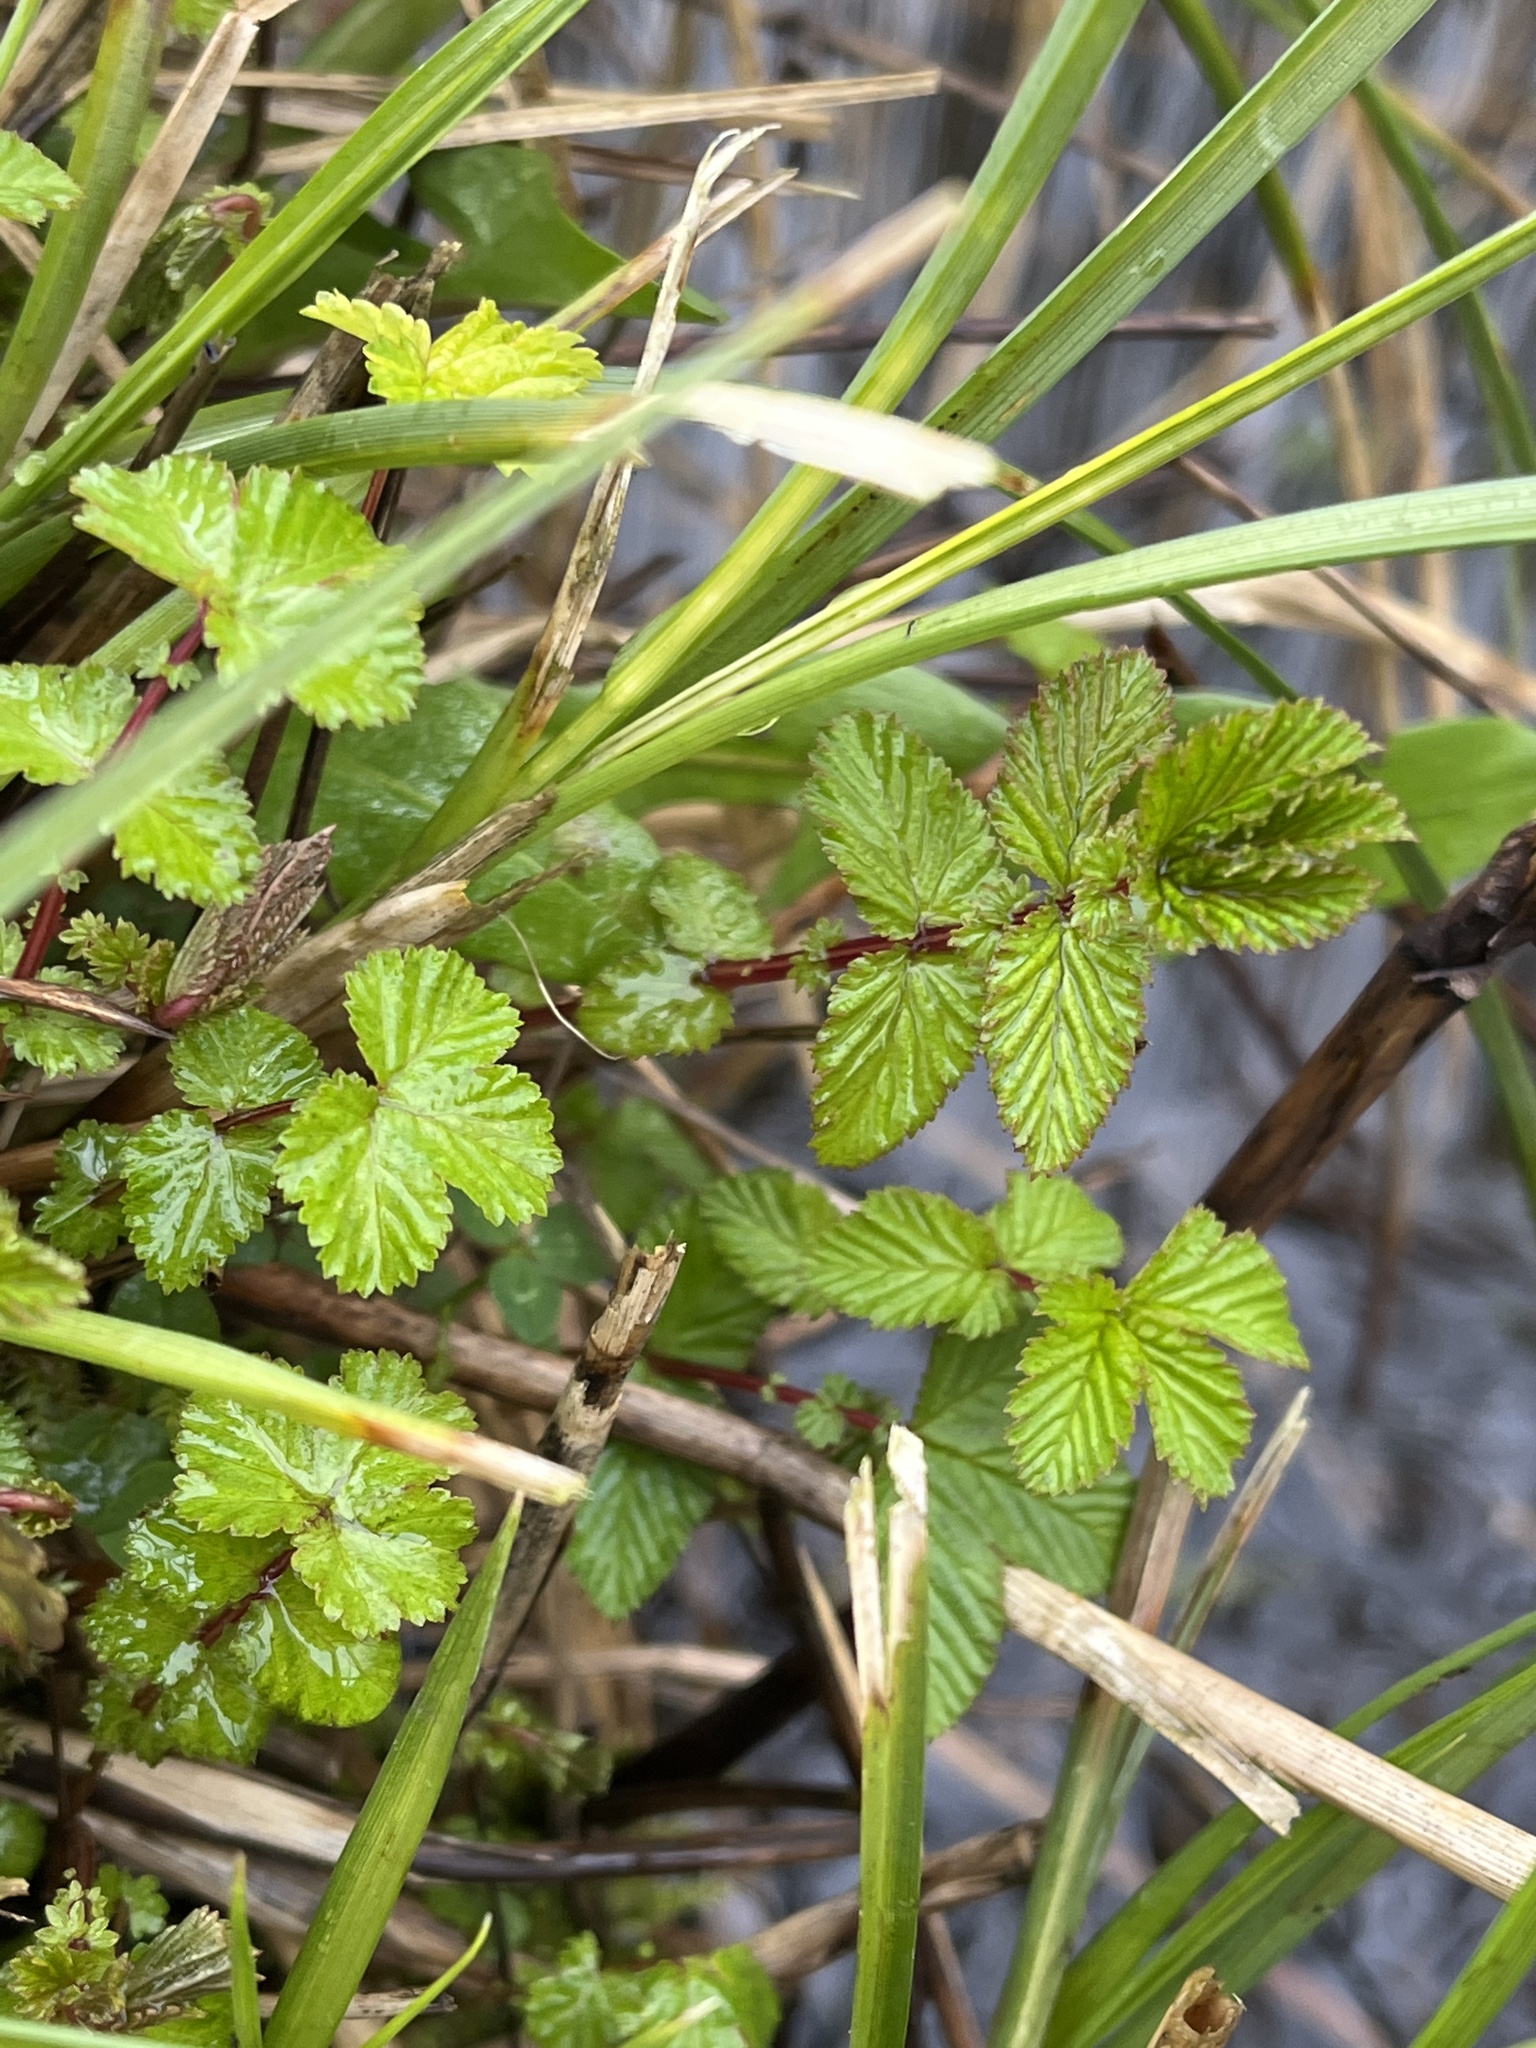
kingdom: Plantae
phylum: Tracheophyta
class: Magnoliopsida
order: Rosales
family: Rosaceae
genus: Filipendula
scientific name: Filipendula ulmaria
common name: Meadowsweet
